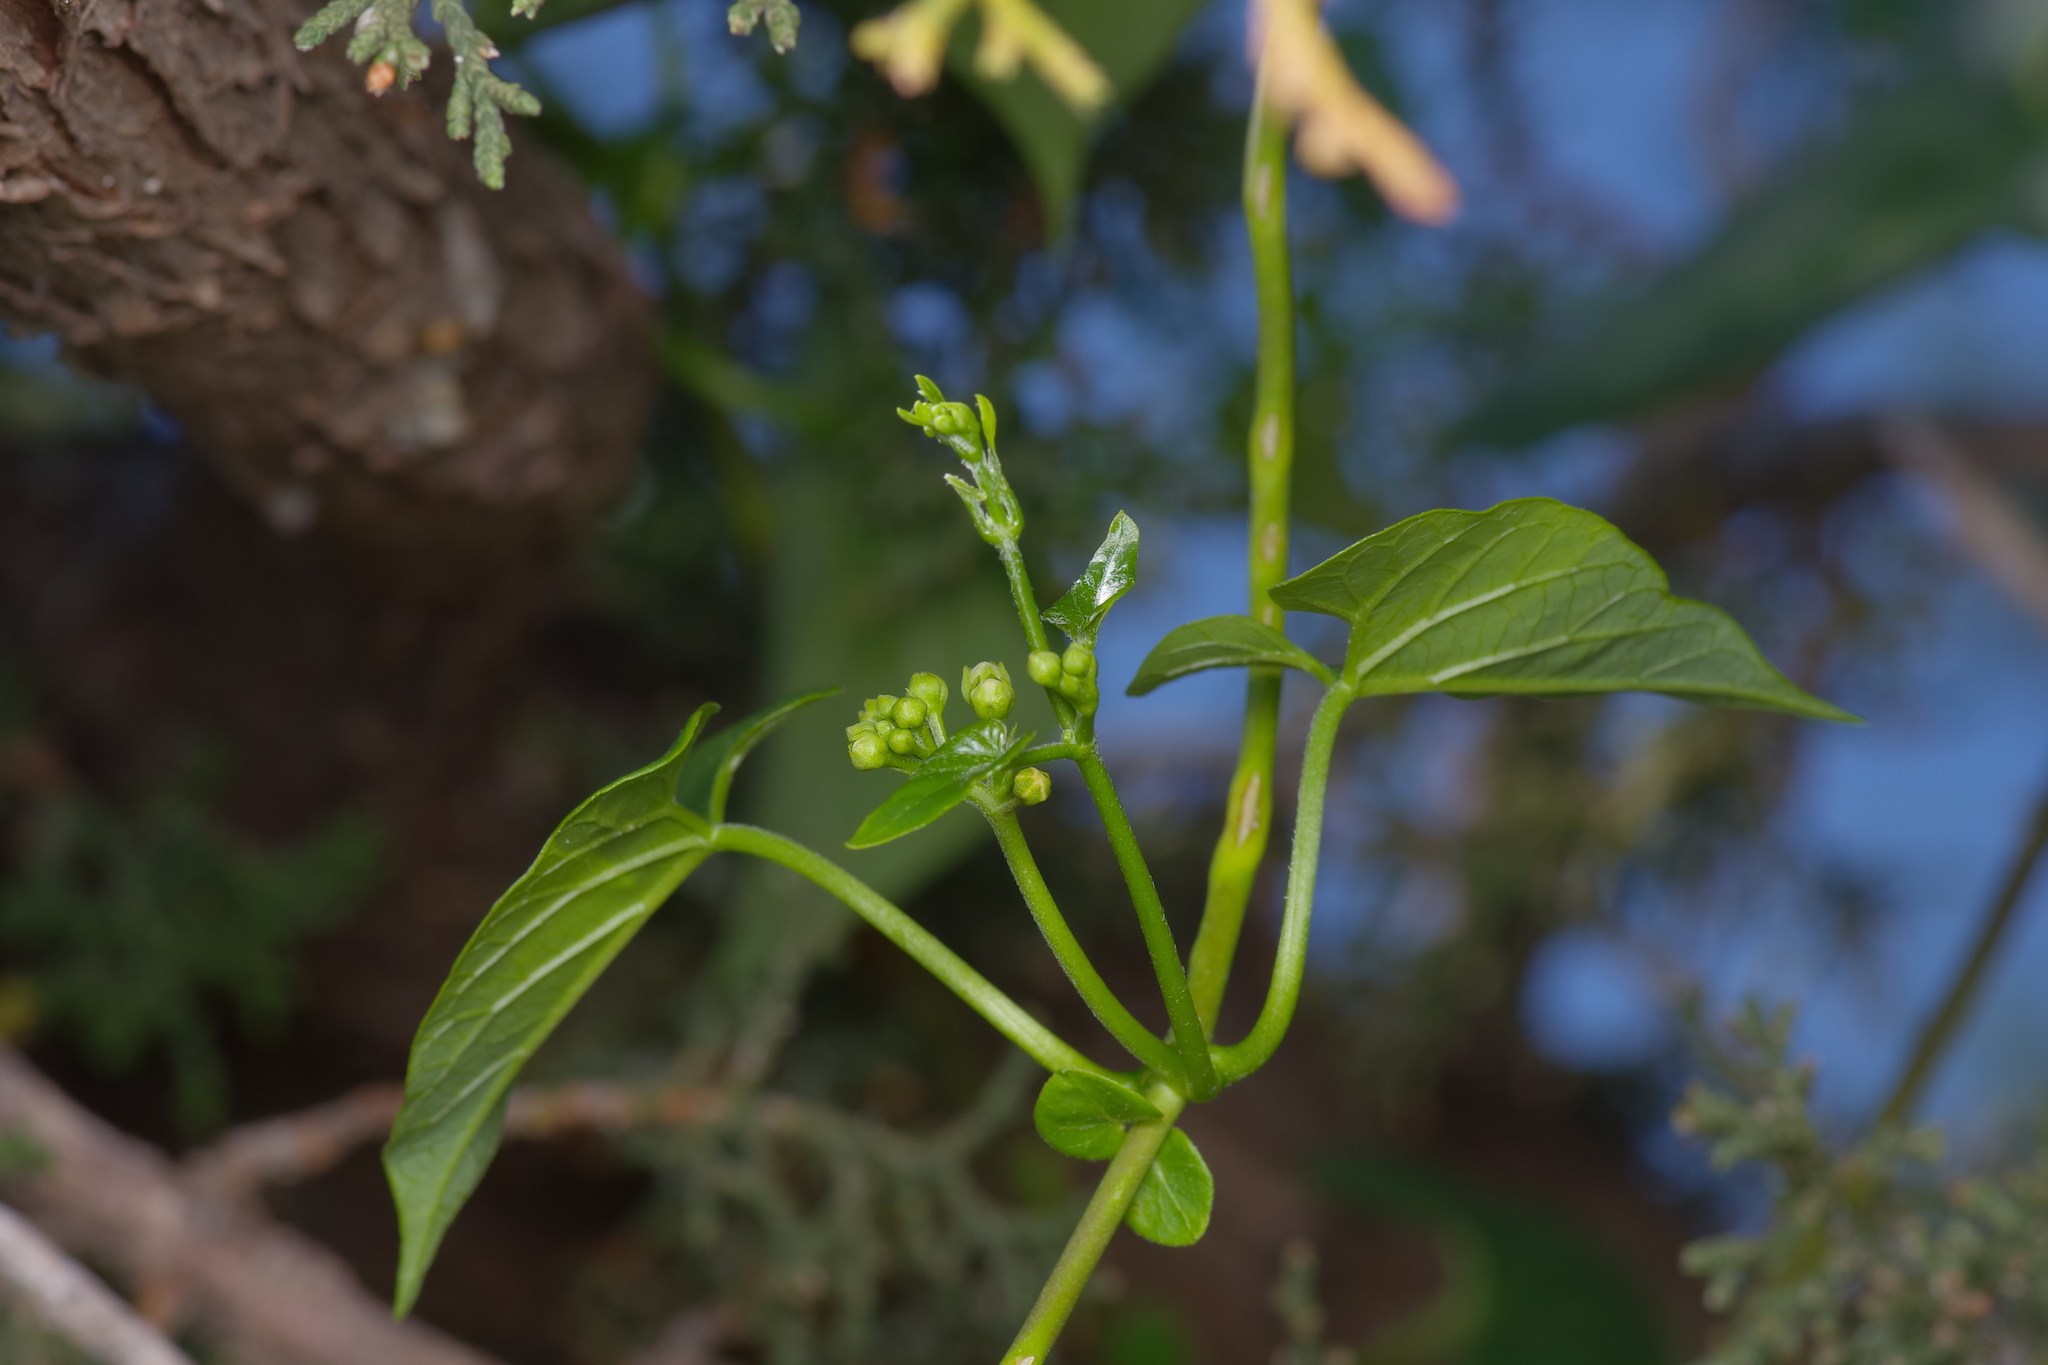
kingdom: Plantae
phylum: Tracheophyta
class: Magnoliopsida
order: Gentianales
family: Apocynaceae
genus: Cynanchum
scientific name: Cynanchum racemosum
